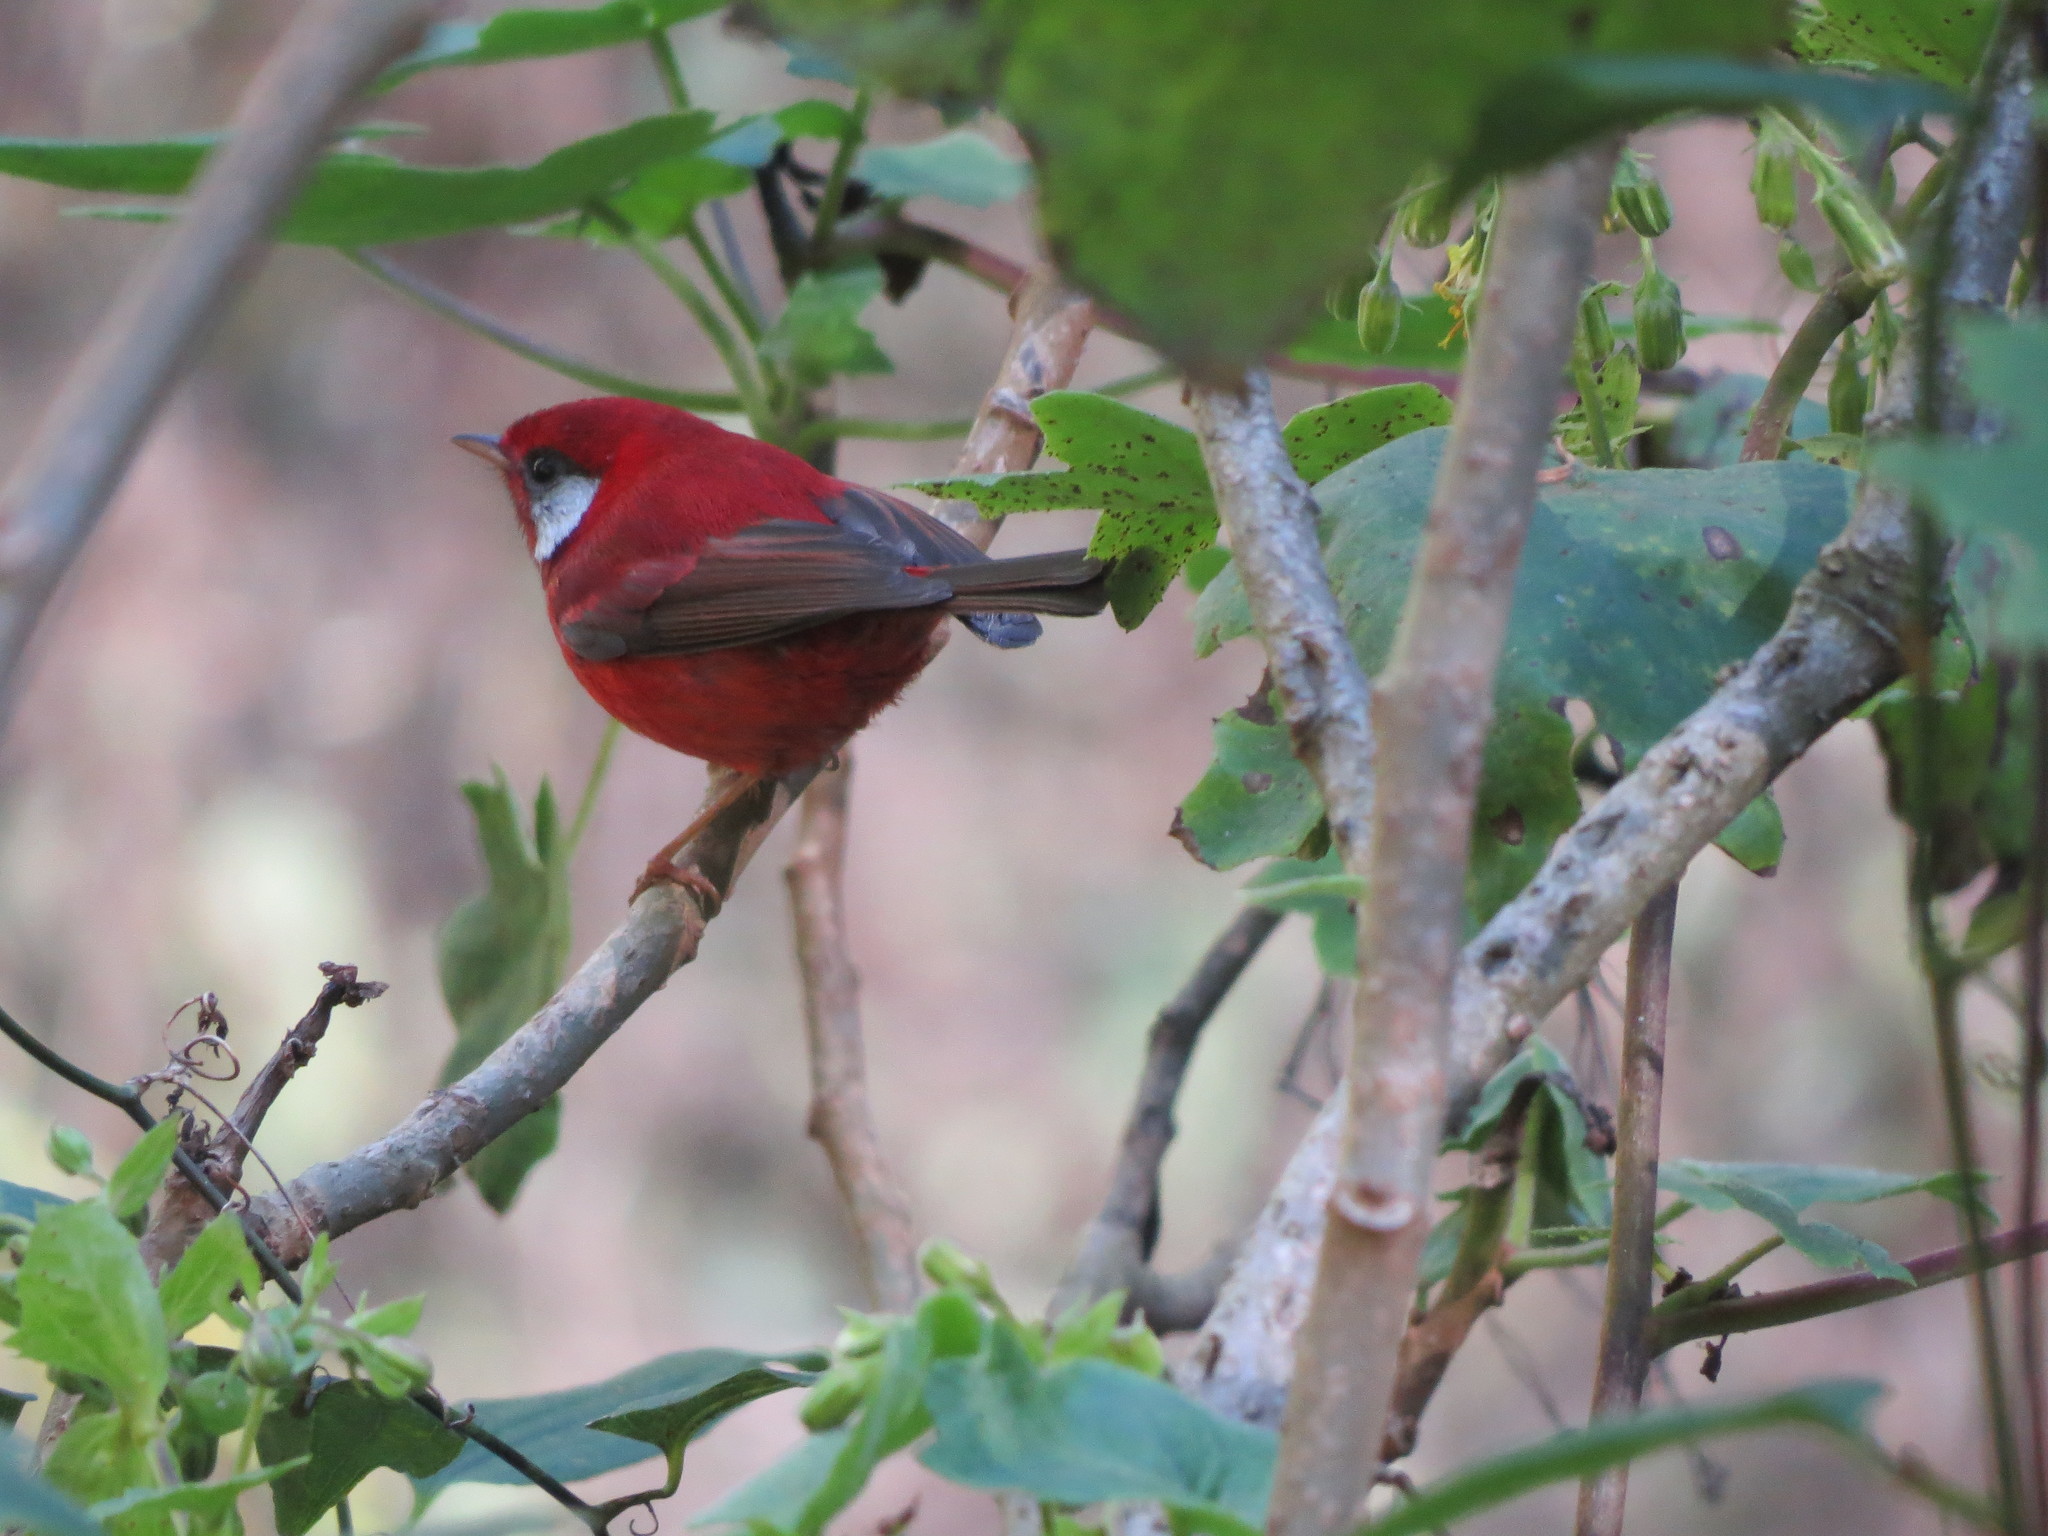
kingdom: Animalia
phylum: Chordata
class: Aves
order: Passeriformes
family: Parulidae
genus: Cardellina
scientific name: Cardellina rubra
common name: Red warbler
